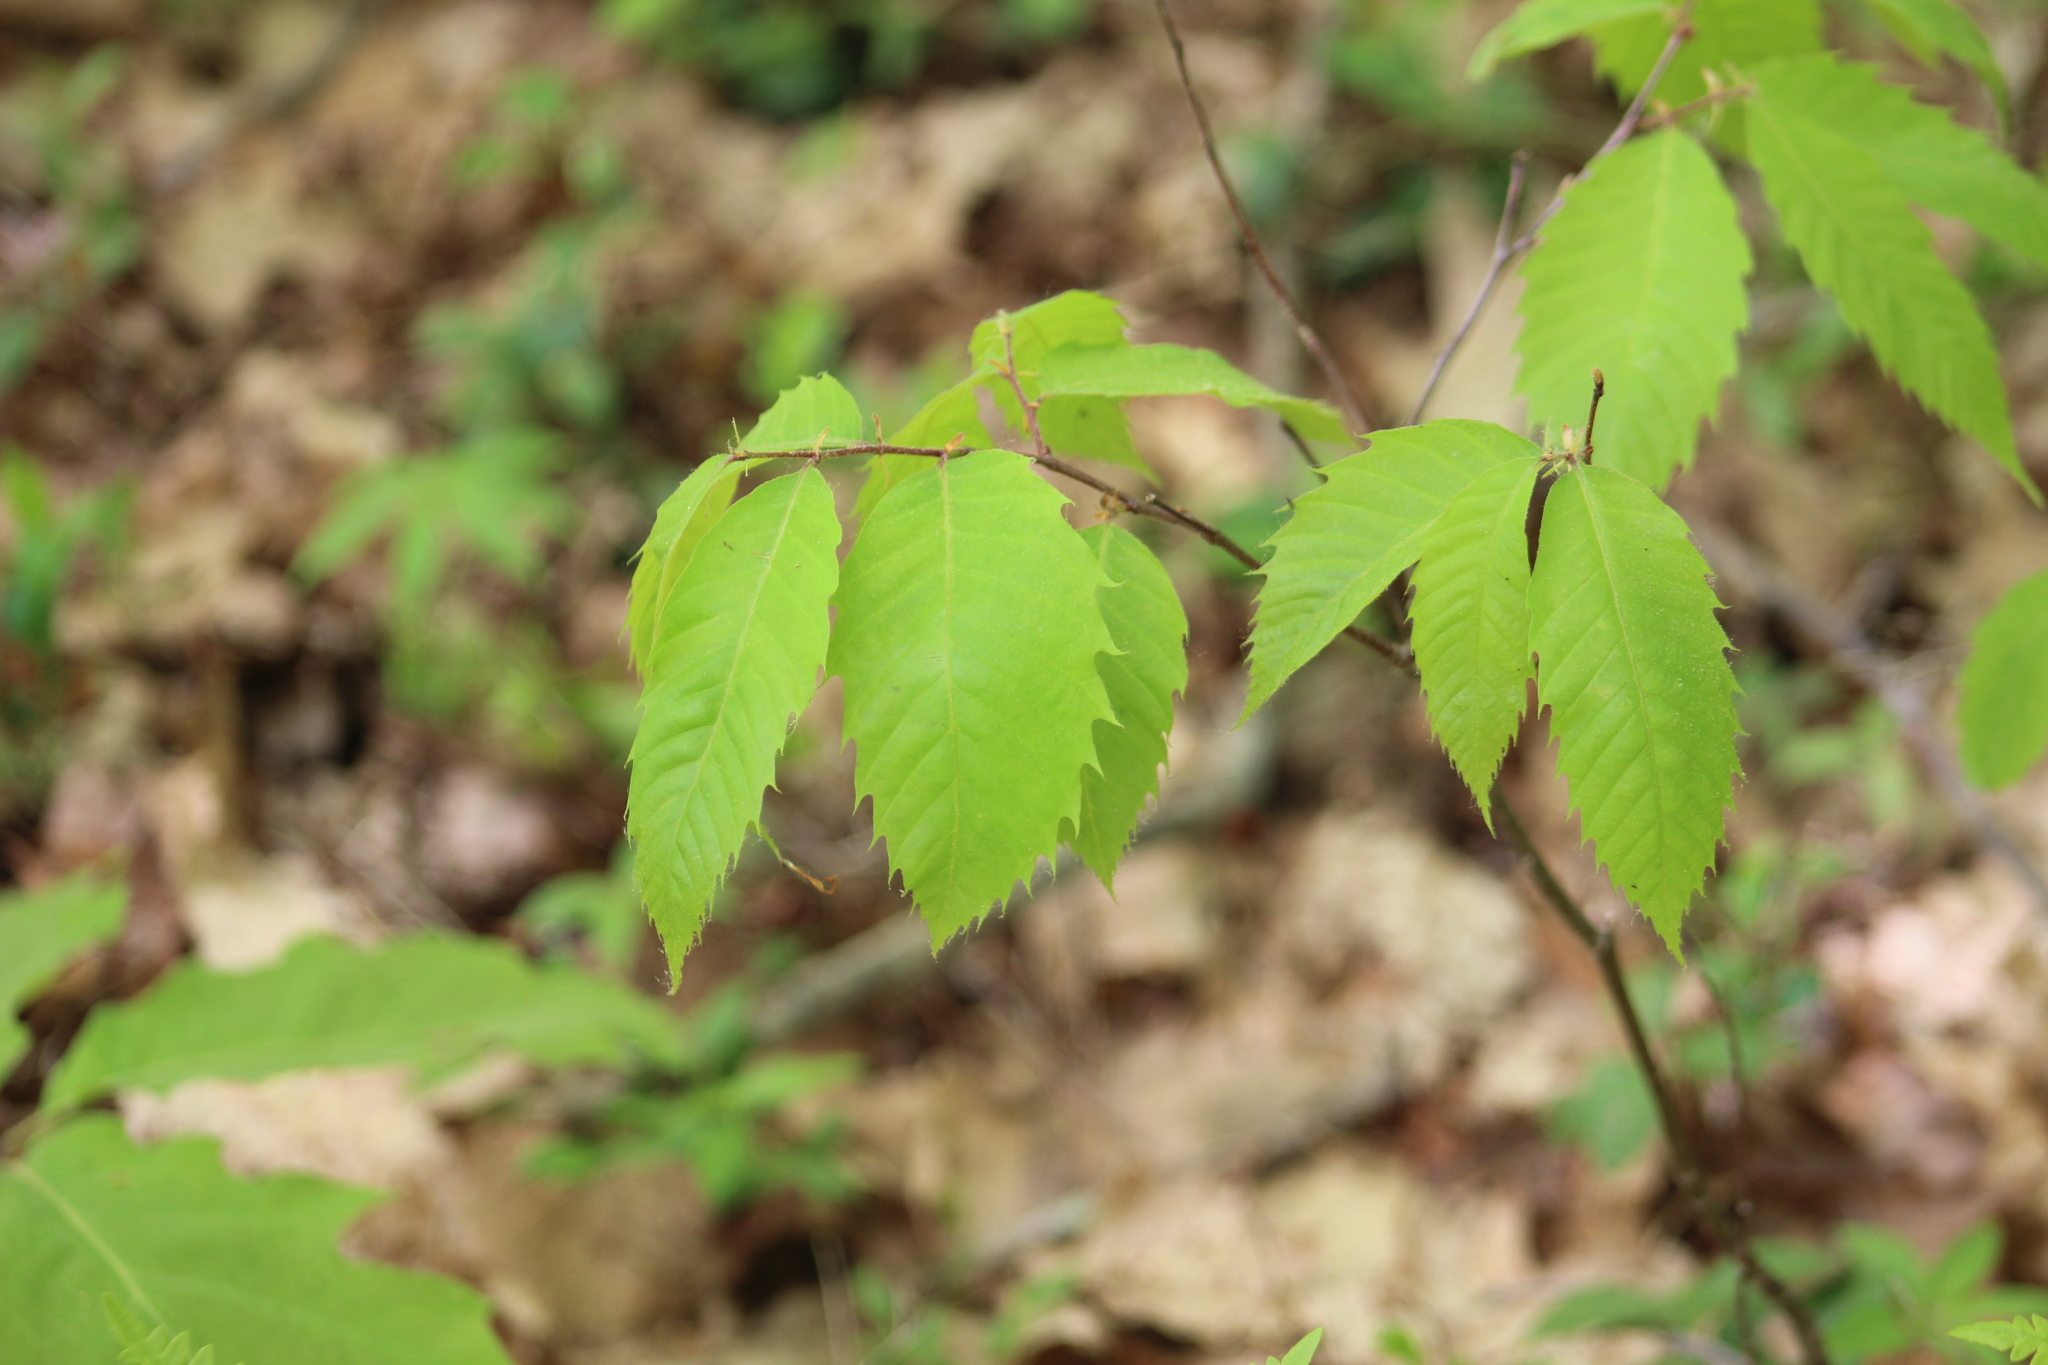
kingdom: Plantae
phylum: Tracheophyta
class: Magnoliopsida
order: Fagales
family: Fagaceae
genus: Castanea
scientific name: Castanea dentata
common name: American chestnut
